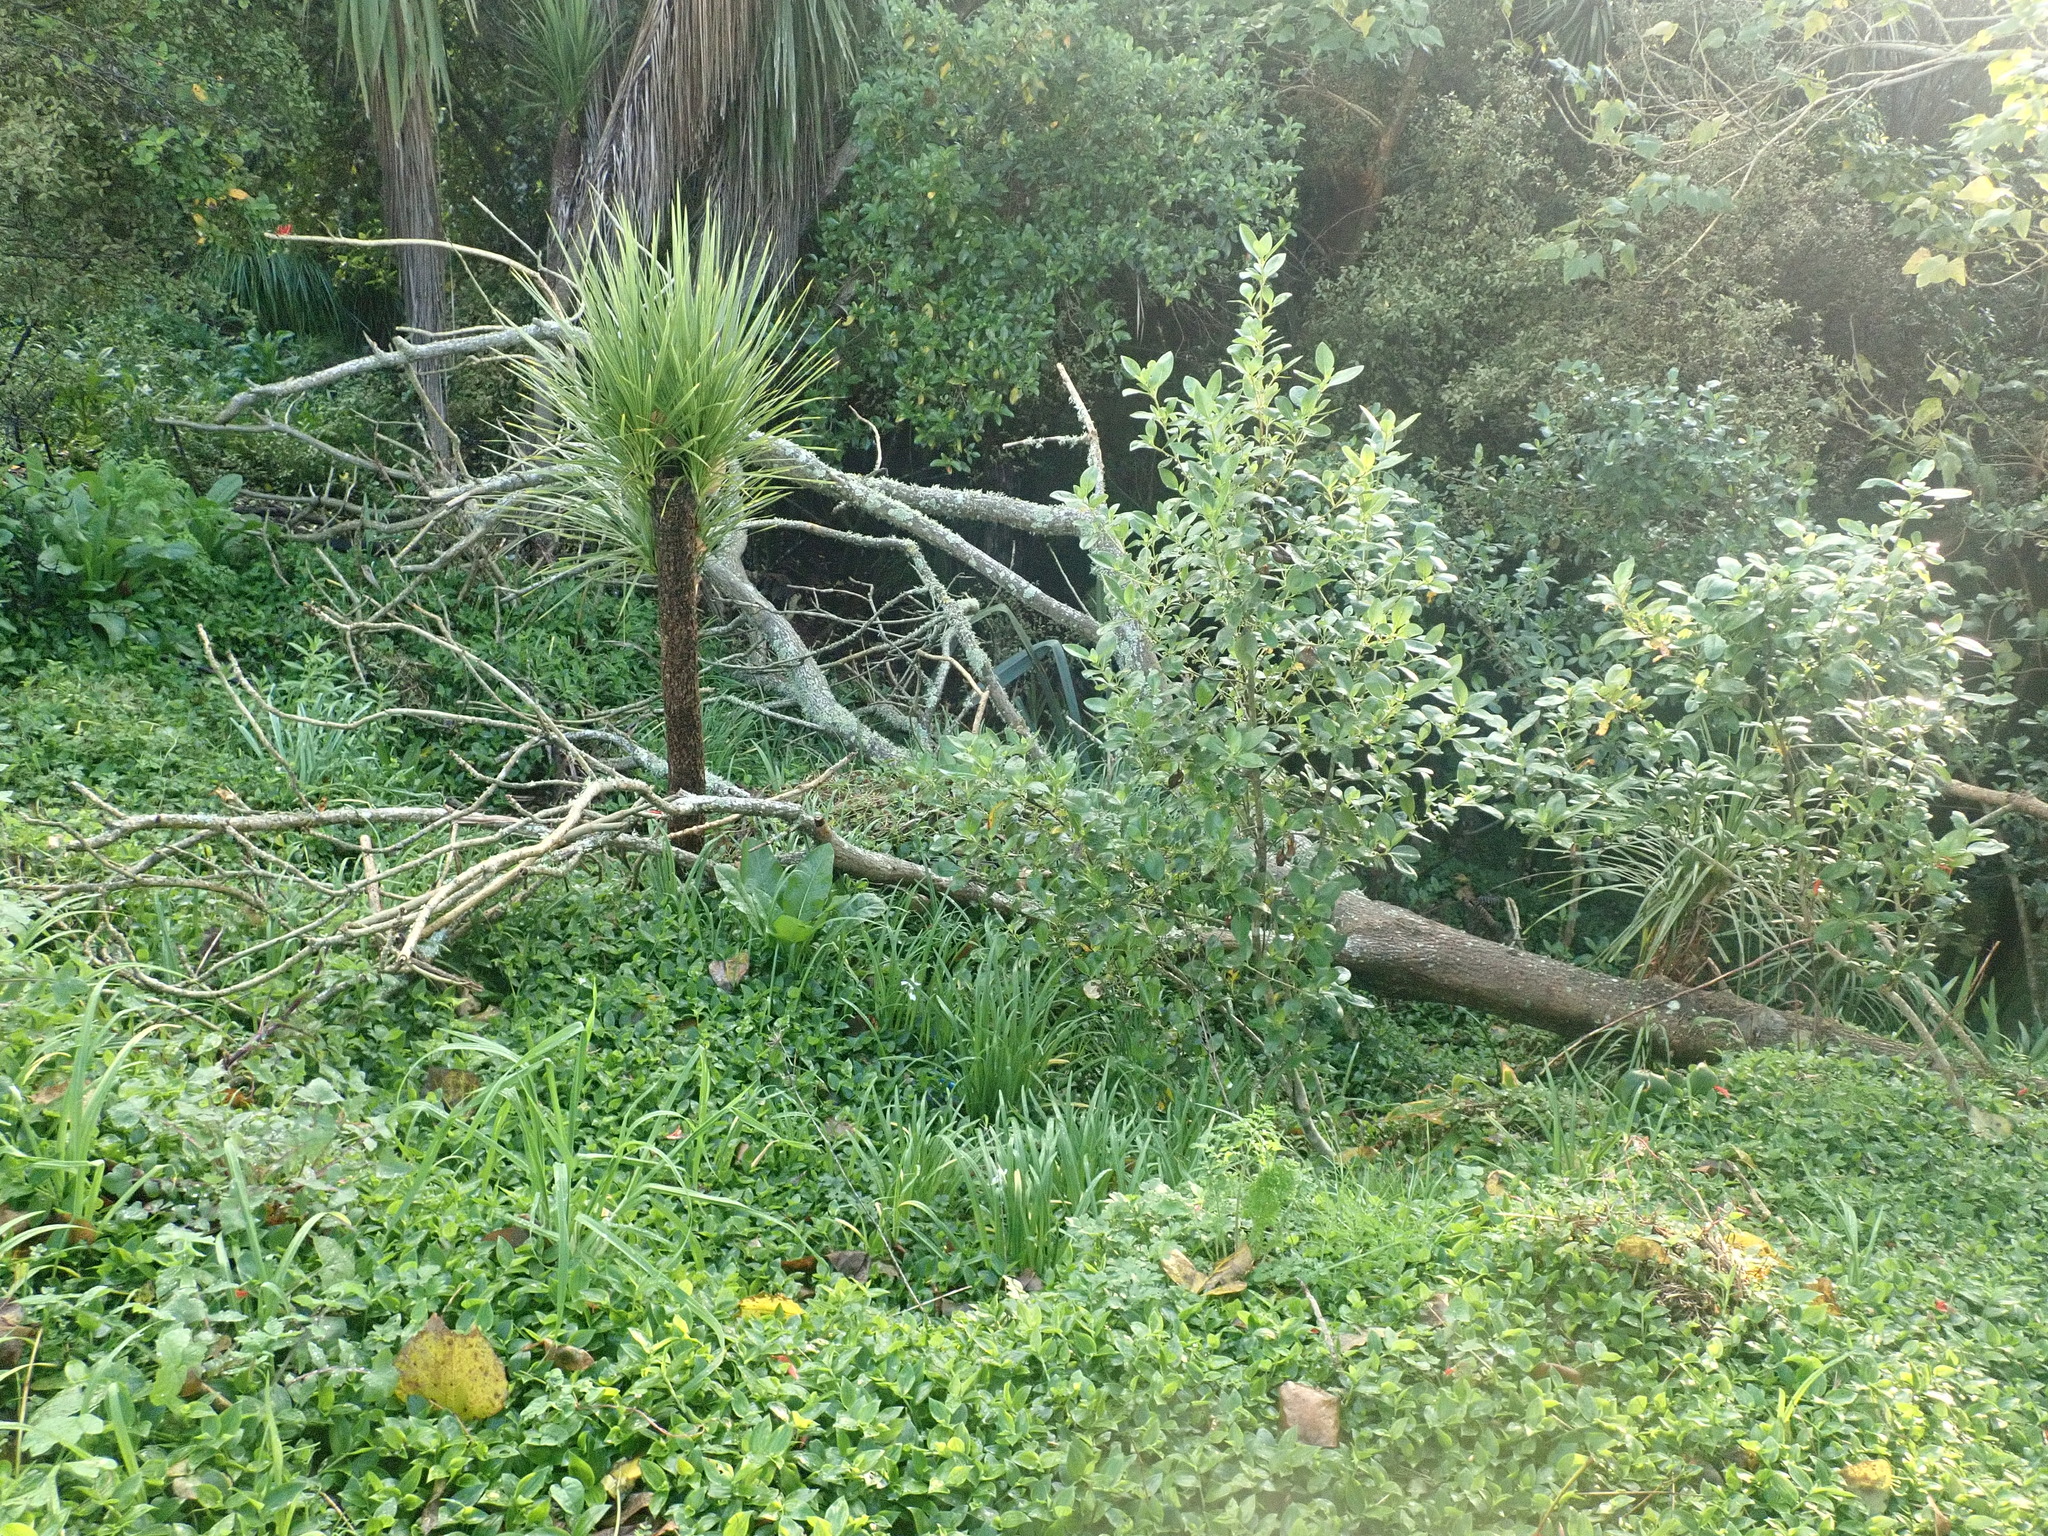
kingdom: Plantae
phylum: Tracheophyta
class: Magnoliopsida
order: Gentianales
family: Rubiaceae
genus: Coprosma
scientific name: Coprosma robusta
